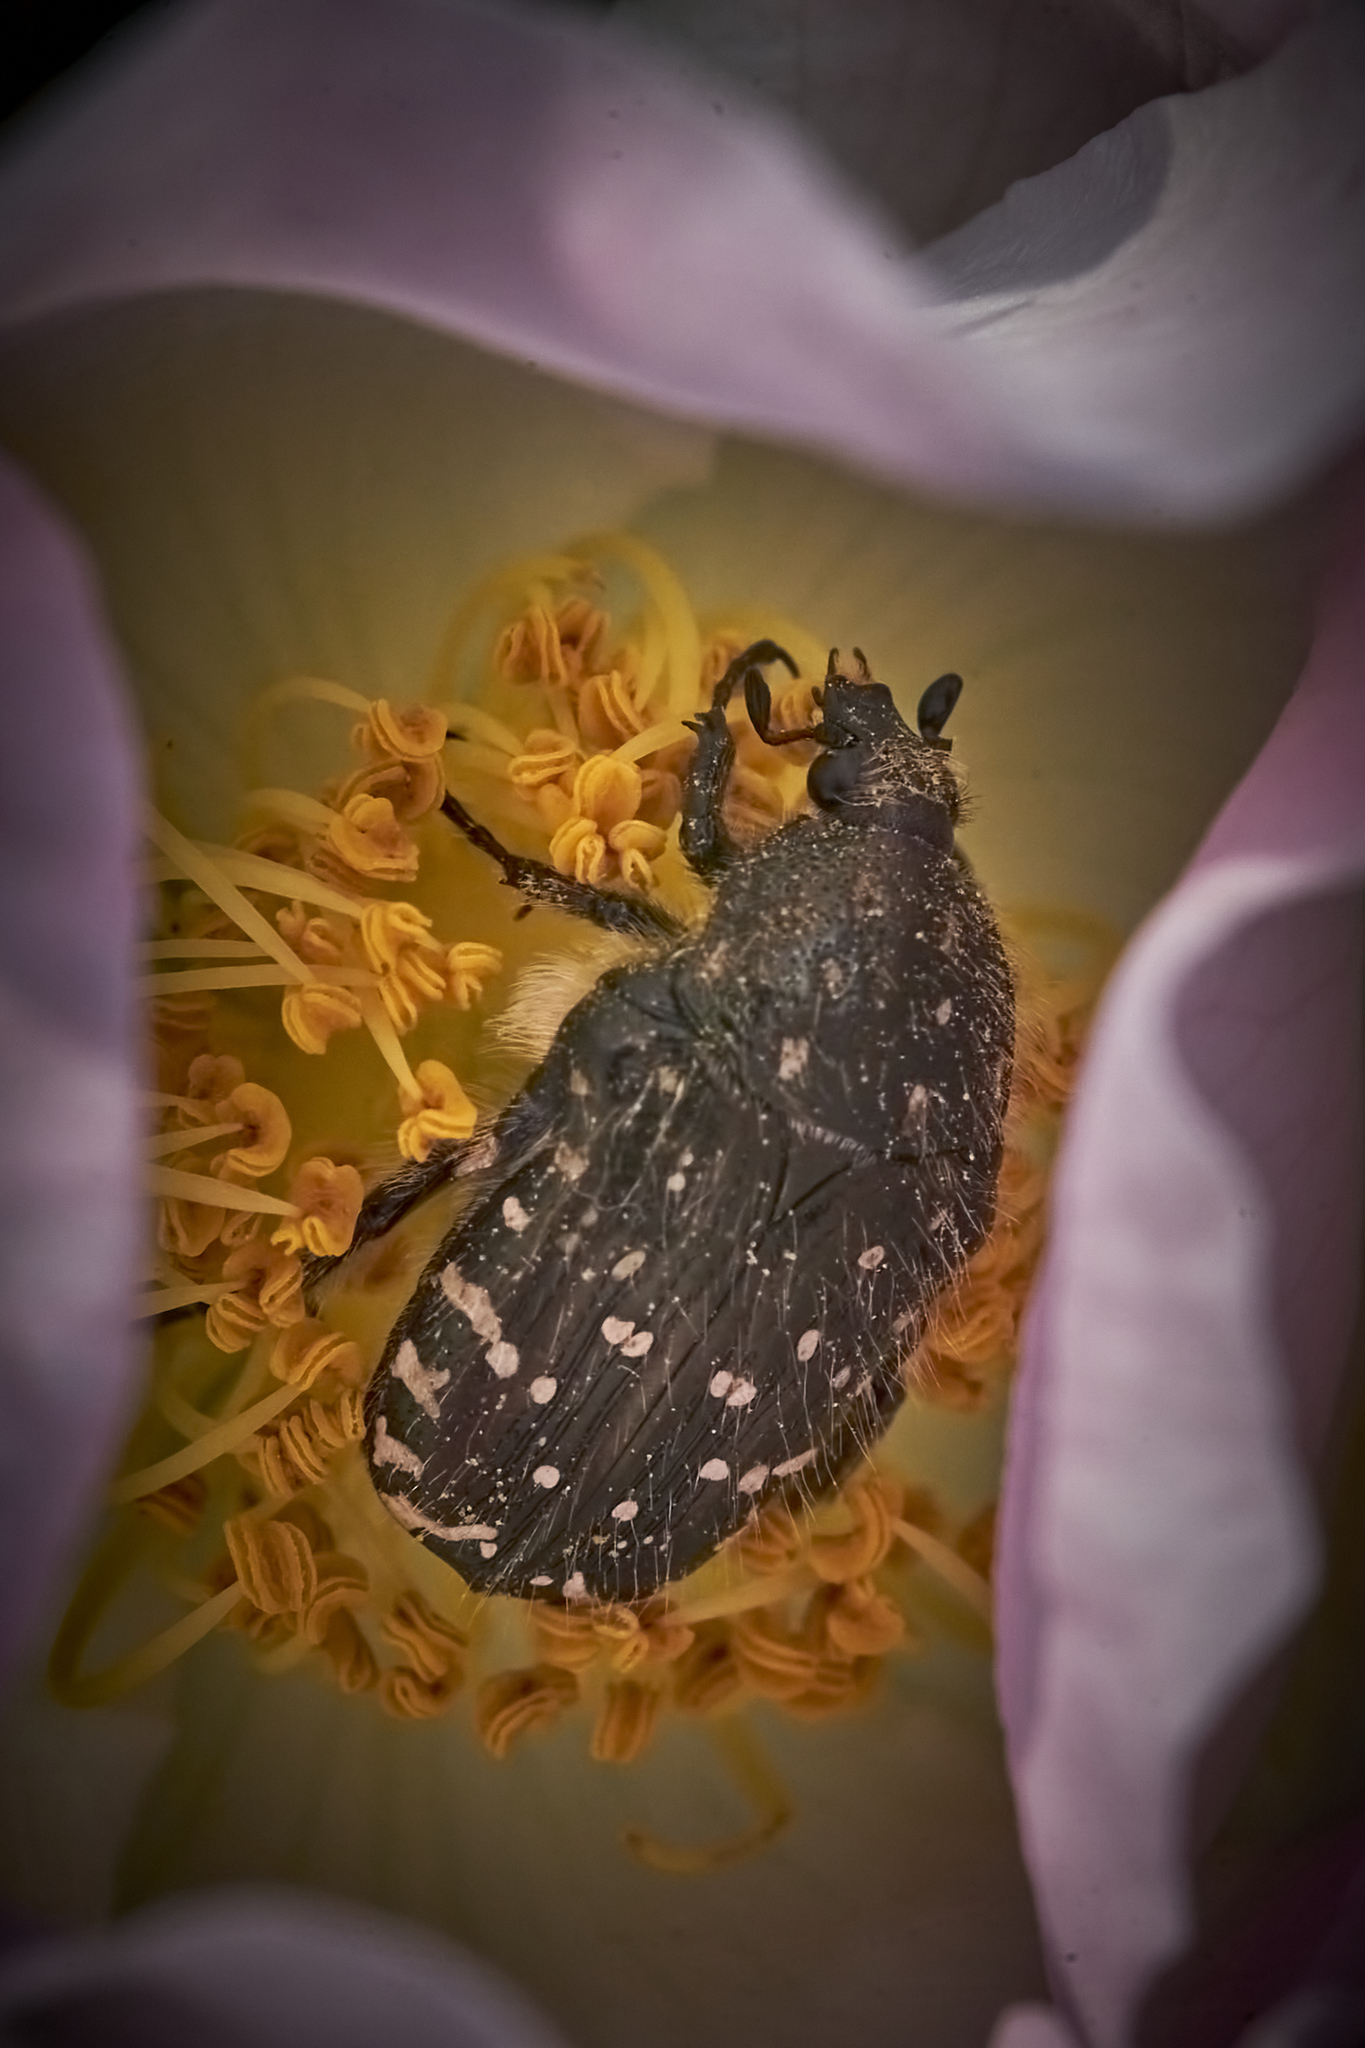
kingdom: Animalia
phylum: Arthropoda
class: Insecta
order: Coleoptera
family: Scarabaeidae
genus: Oxythyrea
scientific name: Oxythyrea funesta
